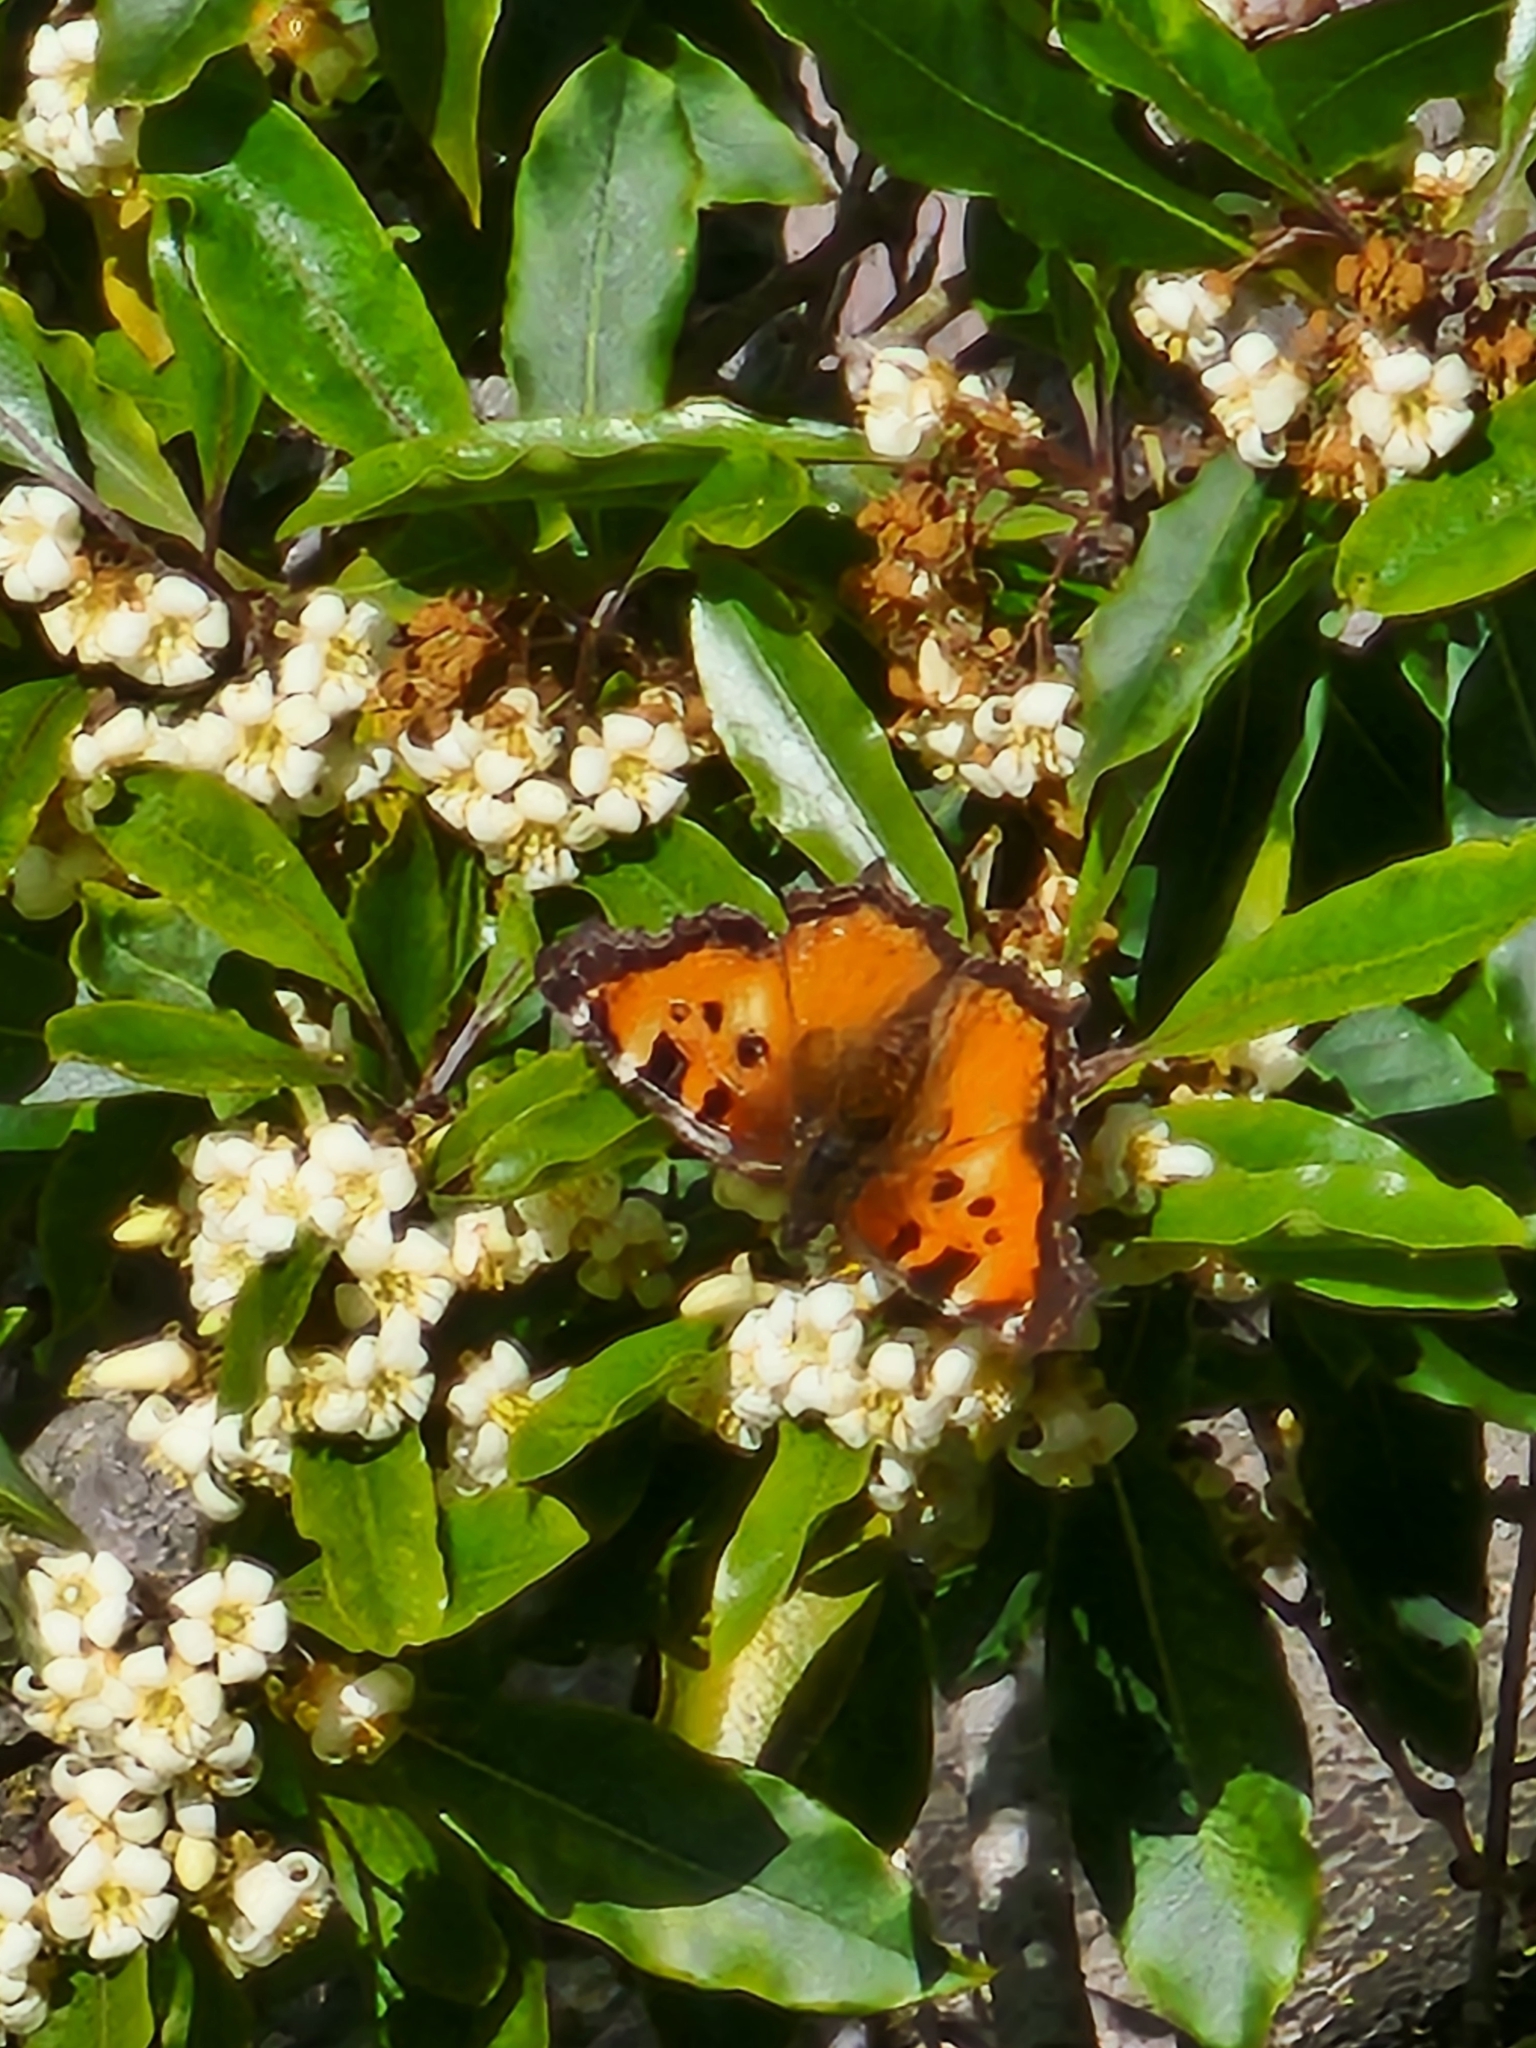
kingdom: Animalia
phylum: Arthropoda
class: Insecta
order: Lepidoptera
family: Nymphalidae
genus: Nymphalis
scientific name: Nymphalis californica
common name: California tortoiseshell
